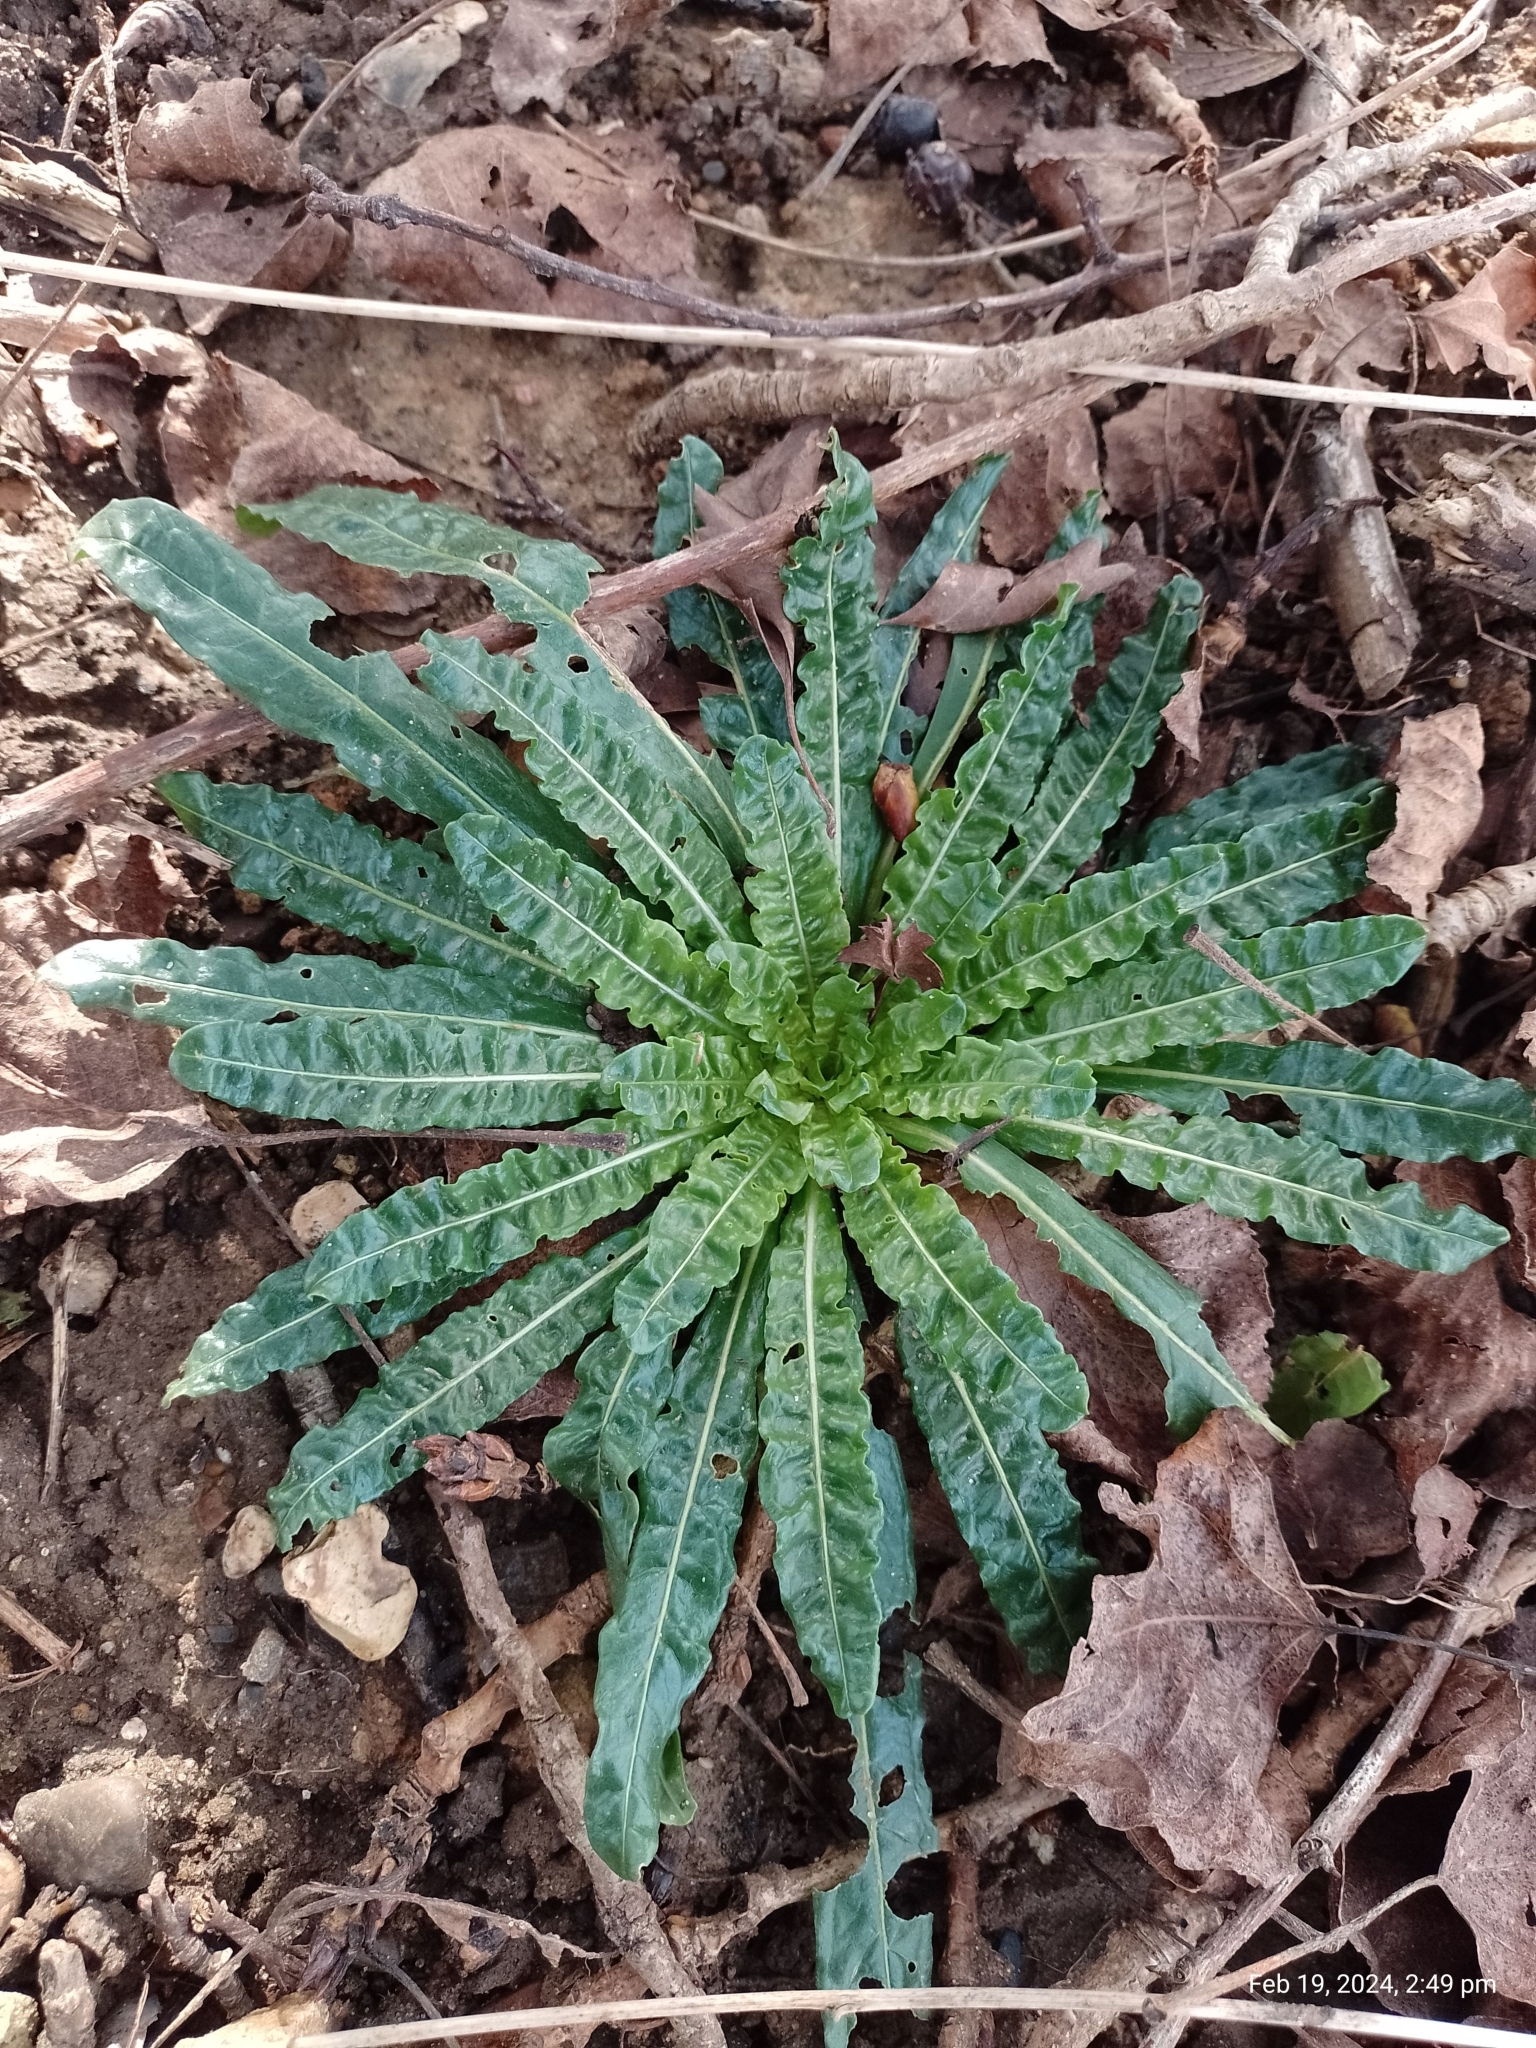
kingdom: Plantae
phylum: Tracheophyta
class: Magnoliopsida
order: Brassicales
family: Resedaceae
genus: Reseda
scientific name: Reseda luteola
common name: Weld
